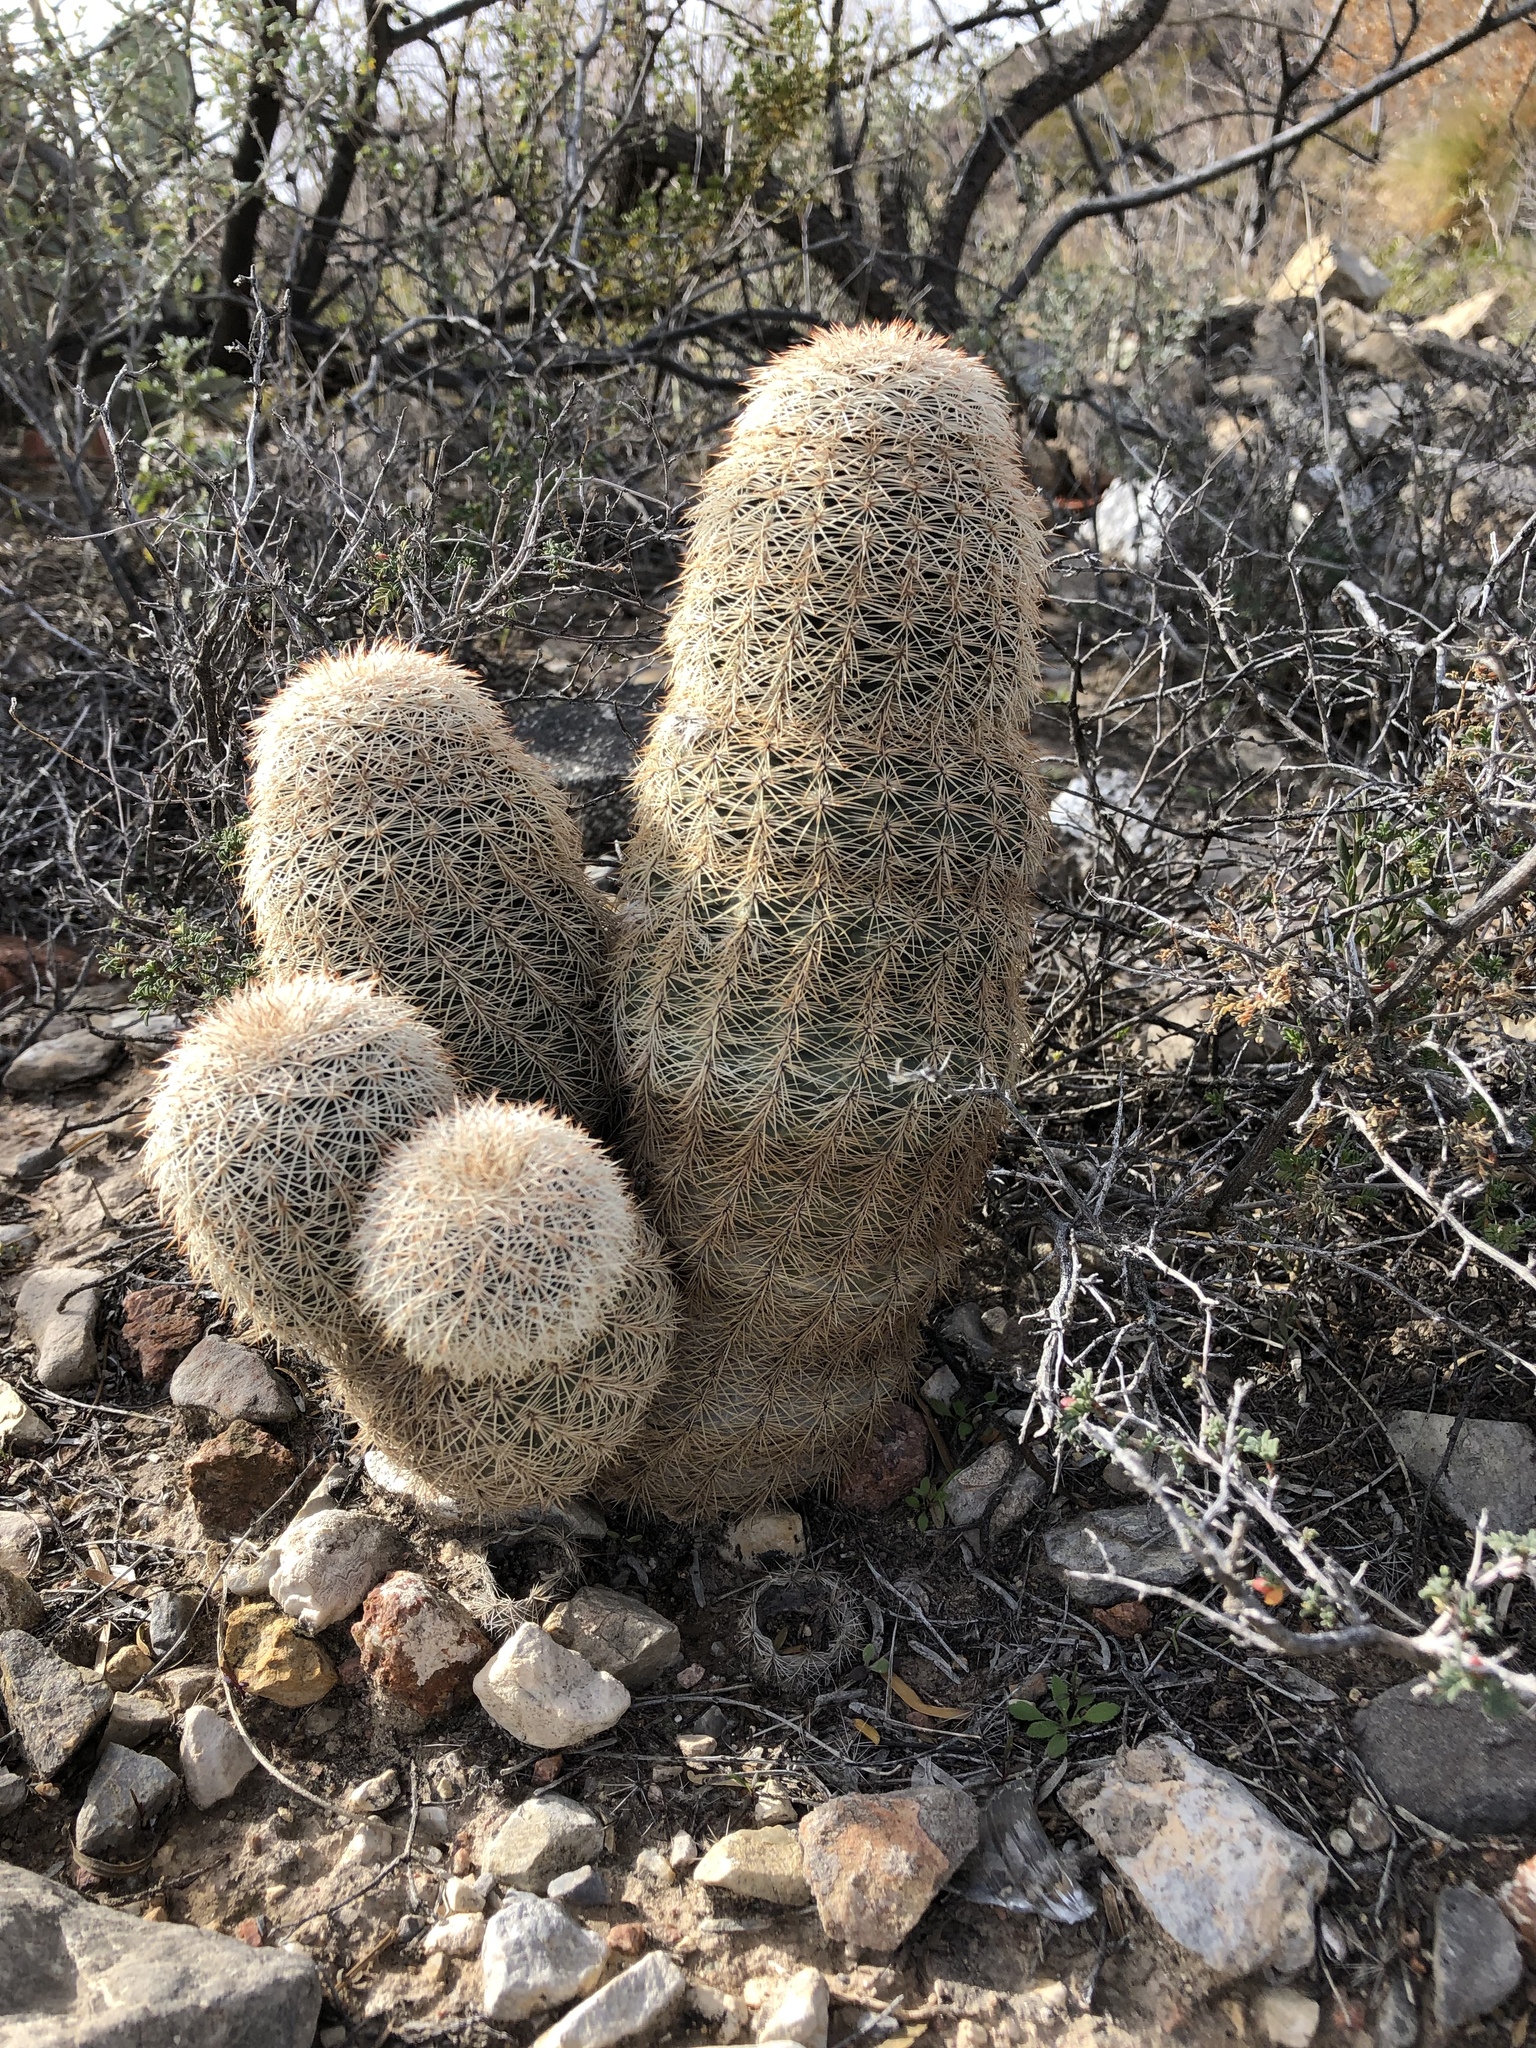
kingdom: Plantae
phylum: Tracheophyta
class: Magnoliopsida
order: Caryophyllales
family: Cactaceae
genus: Echinocereus
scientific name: Echinocereus dasyacanthus
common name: Spiny hedgehog cactus
